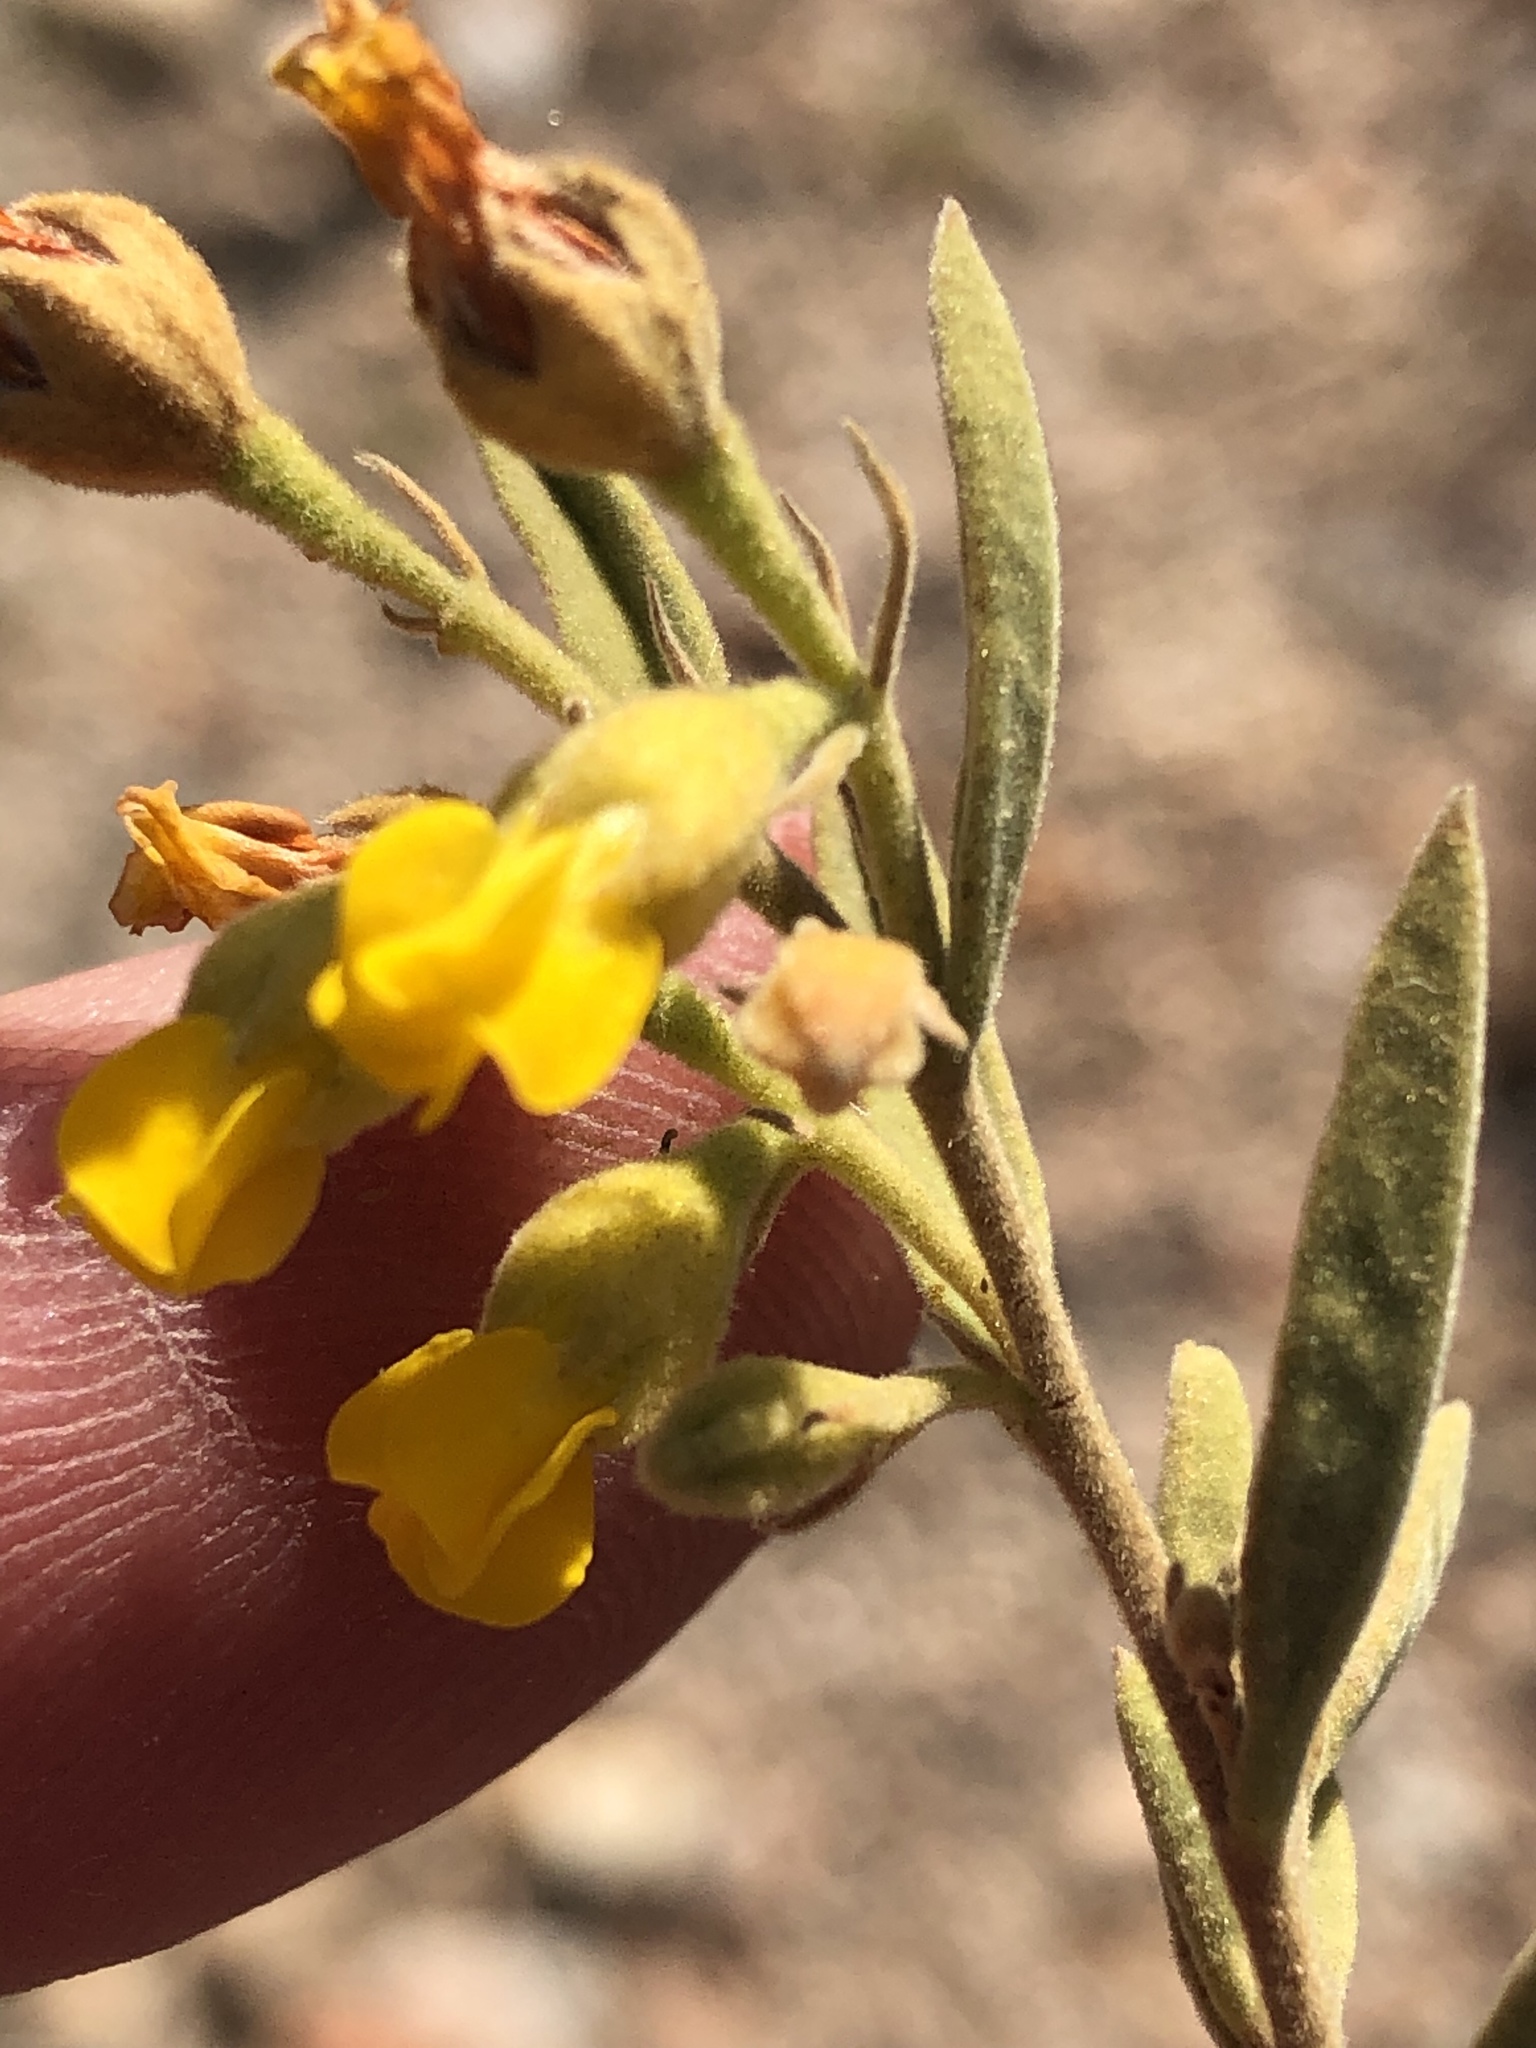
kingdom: Plantae
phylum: Tracheophyta
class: Magnoliopsida
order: Malvales
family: Malvaceae
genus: Hermannia
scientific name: Hermannia velutina
